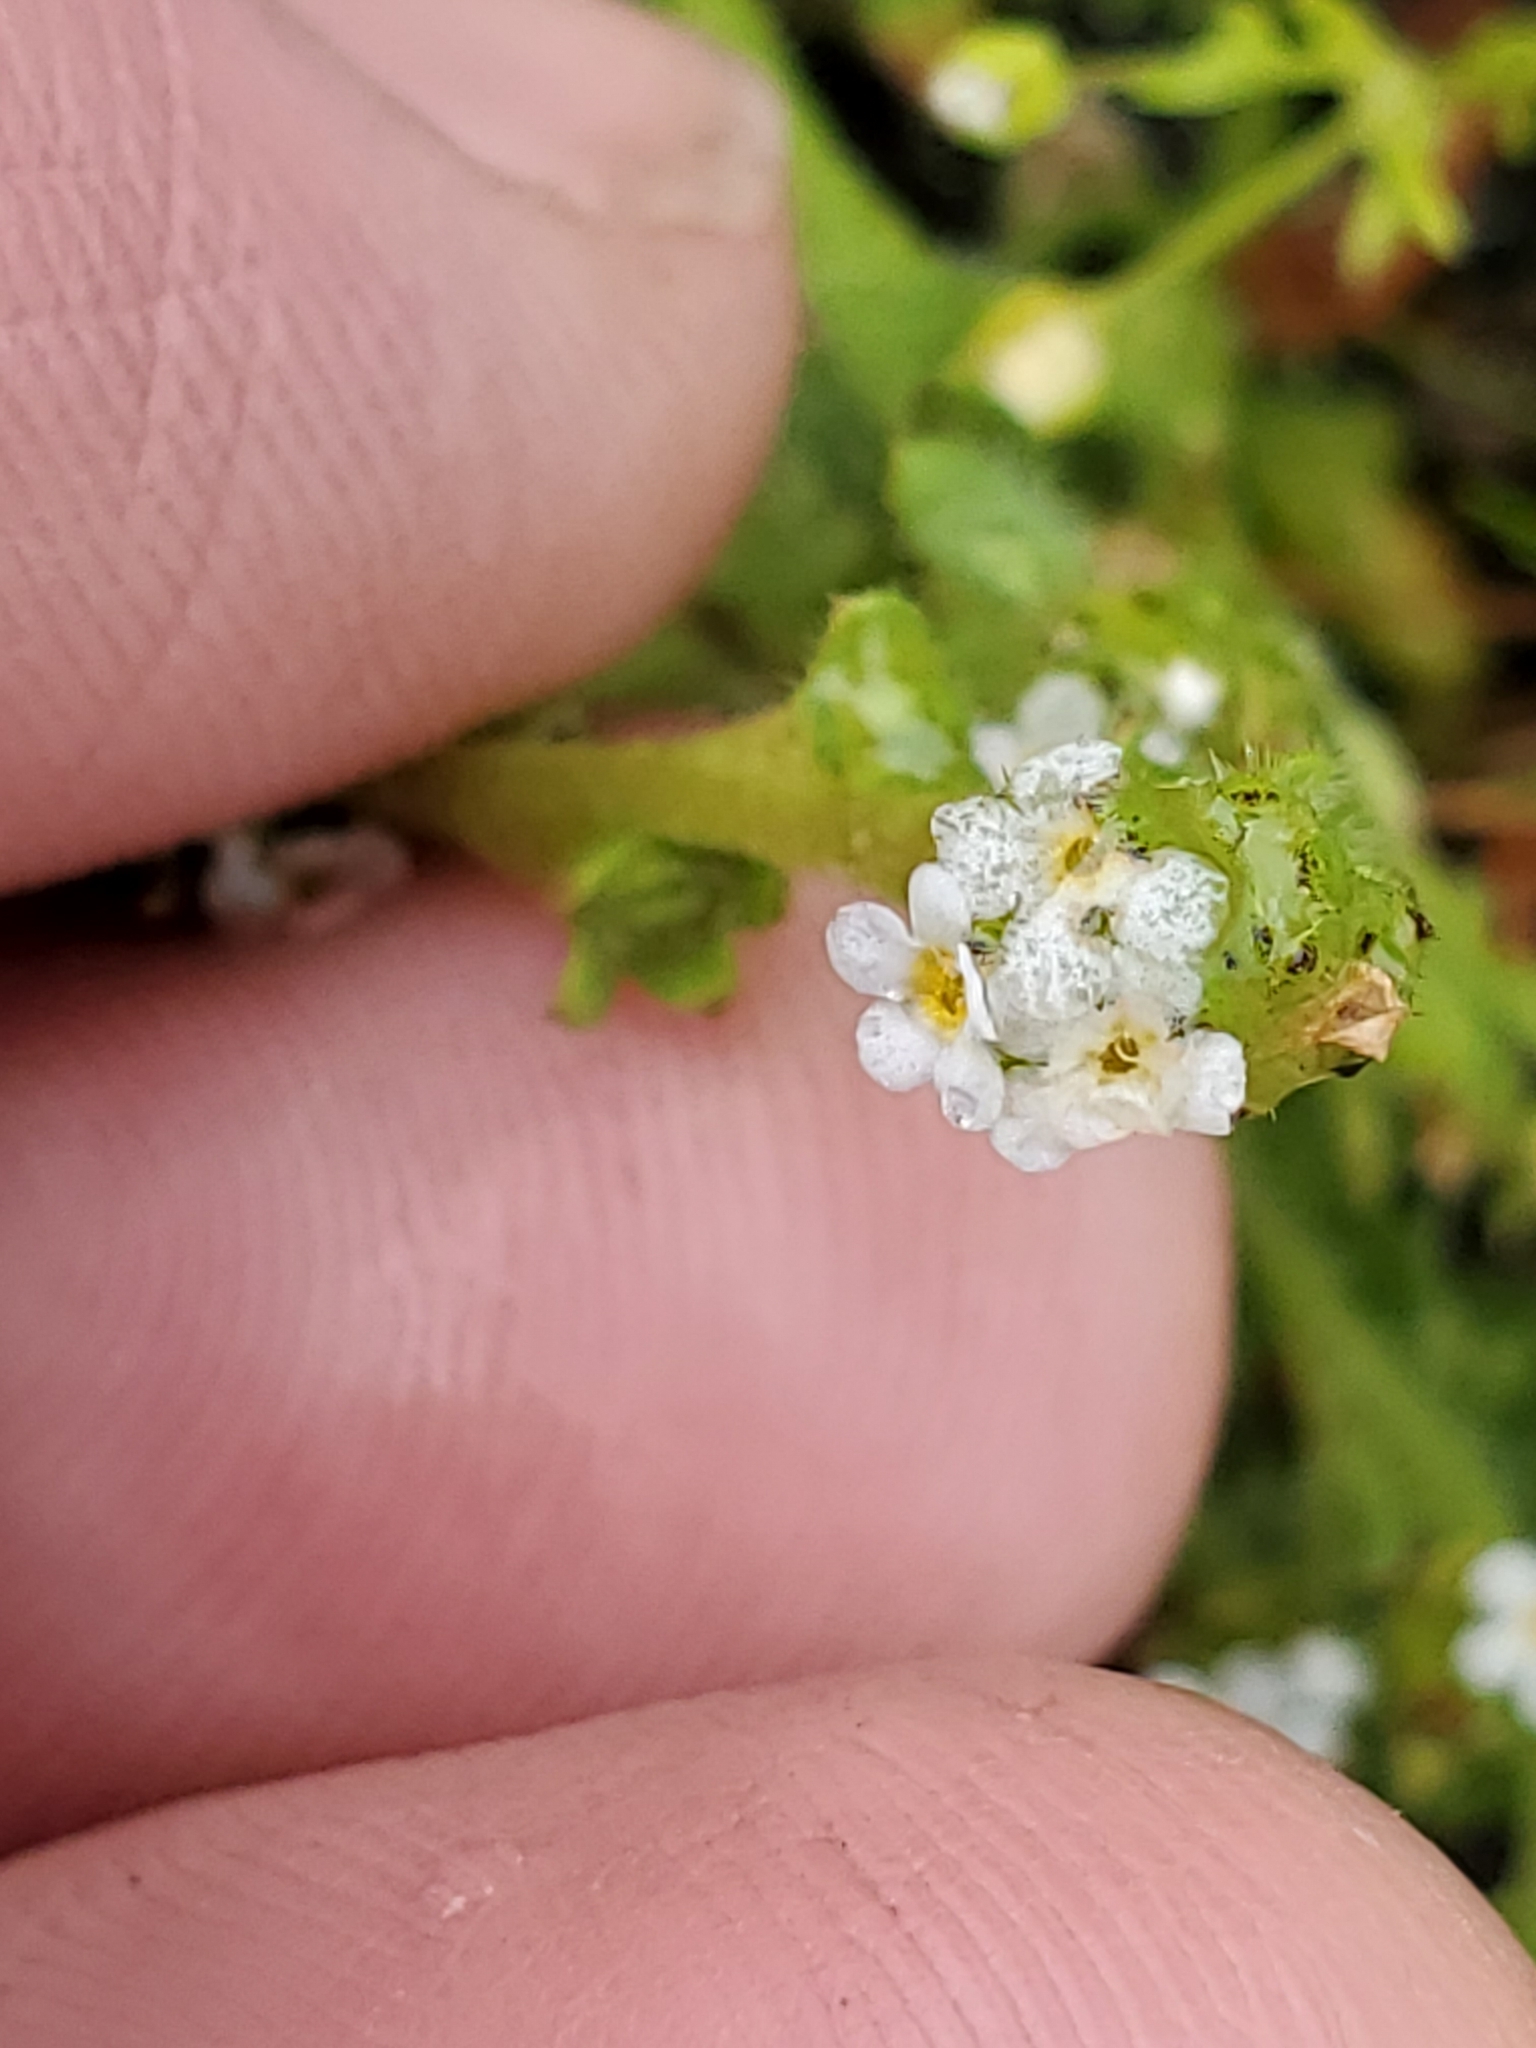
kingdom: Plantae
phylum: Tracheophyta
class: Magnoliopsida
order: Boraginales
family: Boraginaceae
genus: Plagiobothrys
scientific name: Plagiobothrys scouleri
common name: White forget-me-not
